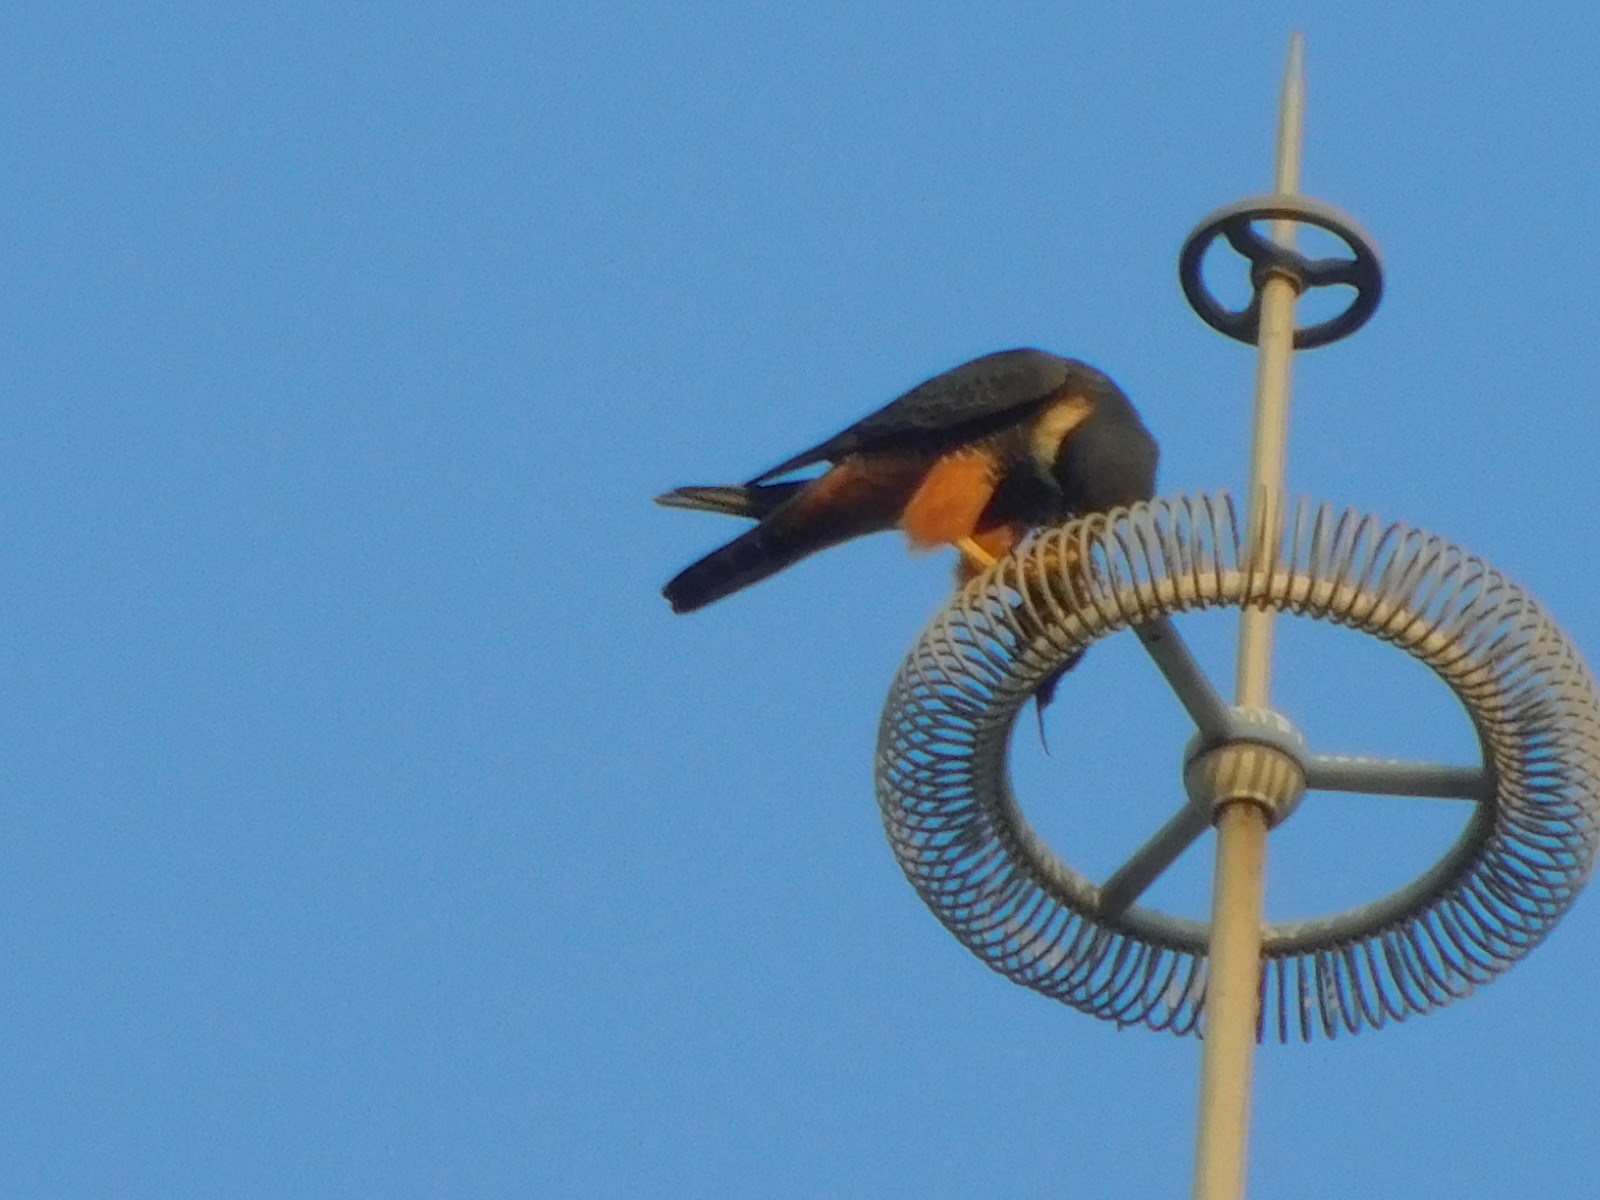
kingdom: Animalia
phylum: Chordata
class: Aves
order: Falconiformes
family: Falconidae
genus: Falco
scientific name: Falco rufigularis
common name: Bat falcon
